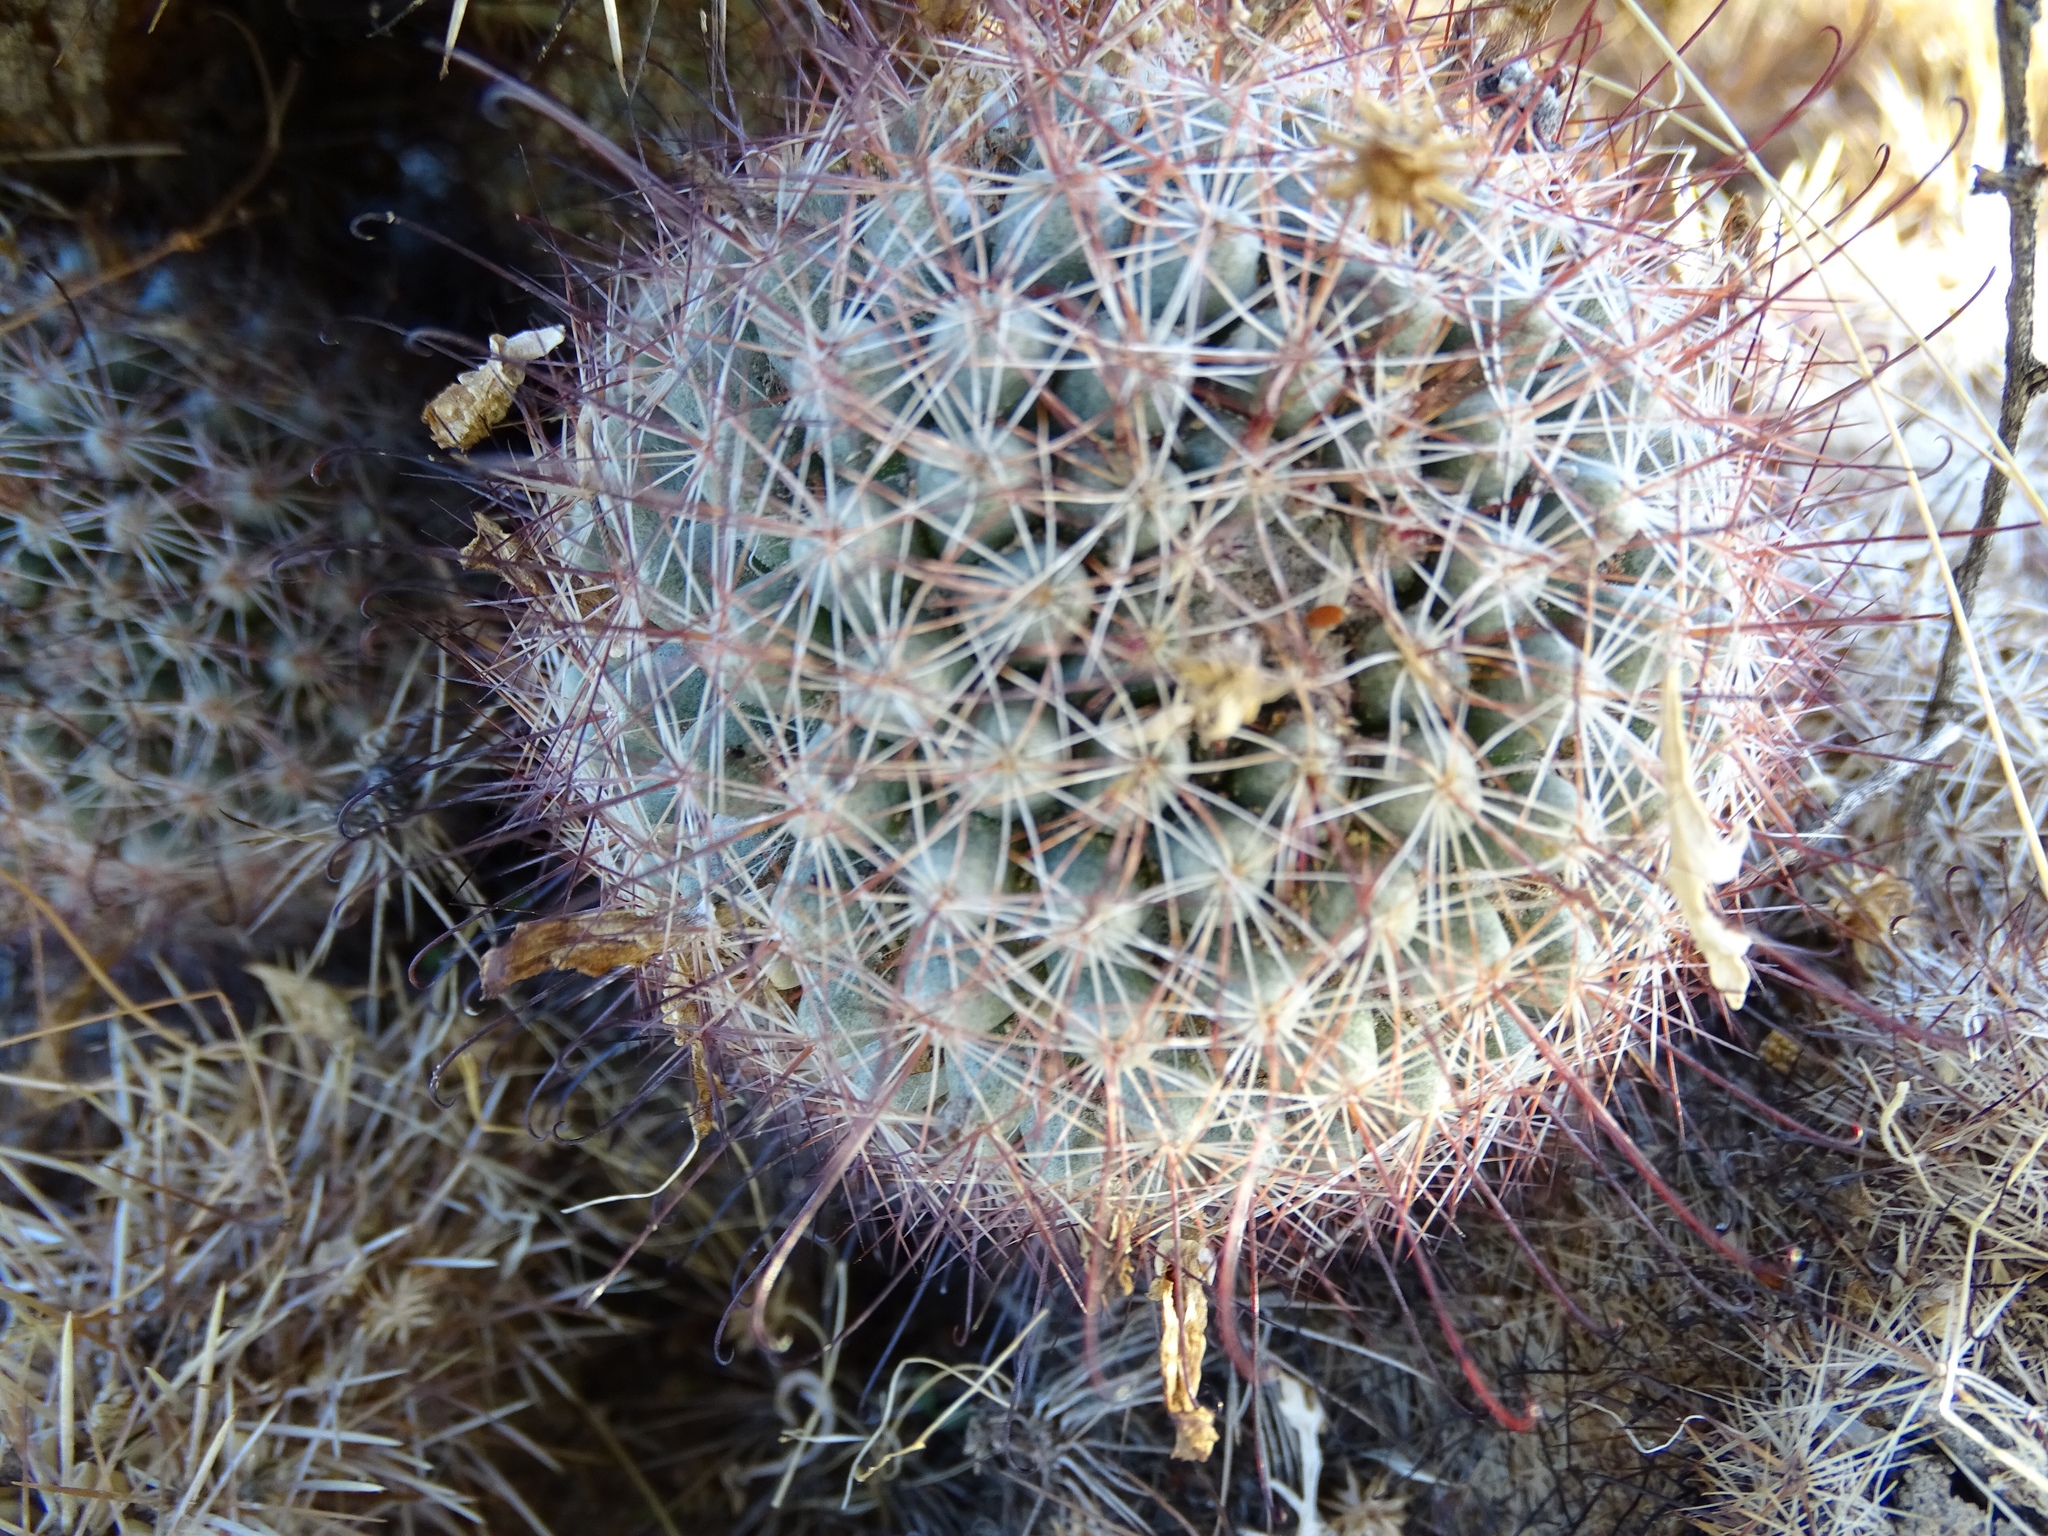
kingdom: Plantae
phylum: Tracheophyta
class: Magnoliopsida
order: Caryophyllales
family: Cactaceae
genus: Cochemiea
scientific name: Cochemiea dioica
